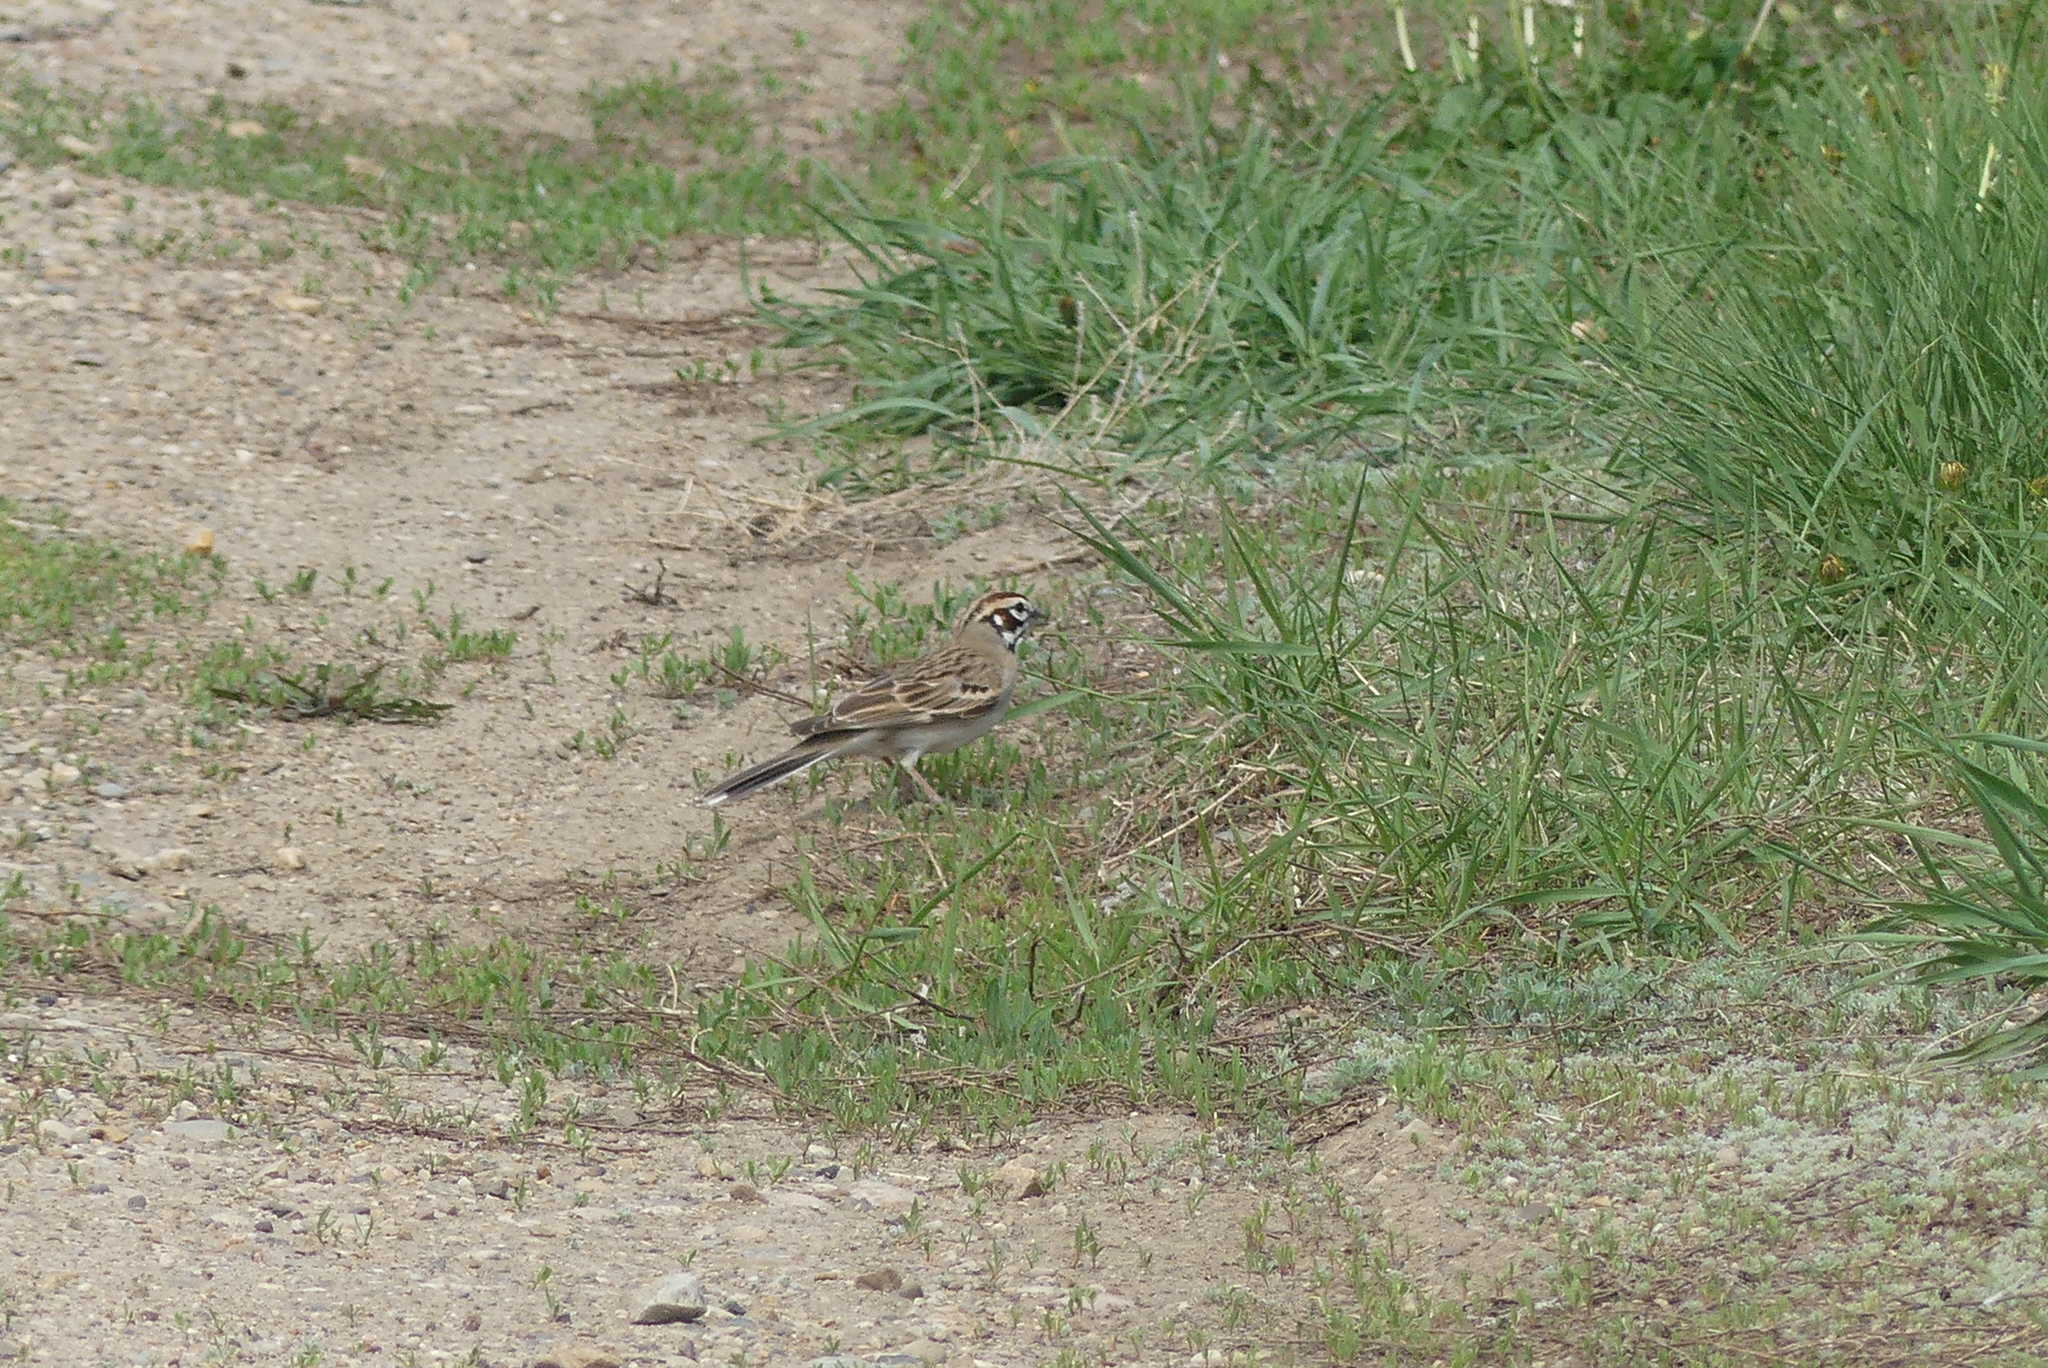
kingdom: Animalia
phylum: Chordata
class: Aves
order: Passeriformes
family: Passerellidae
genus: Chondestes
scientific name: Chondestes grammacus
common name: Lark sparrow
